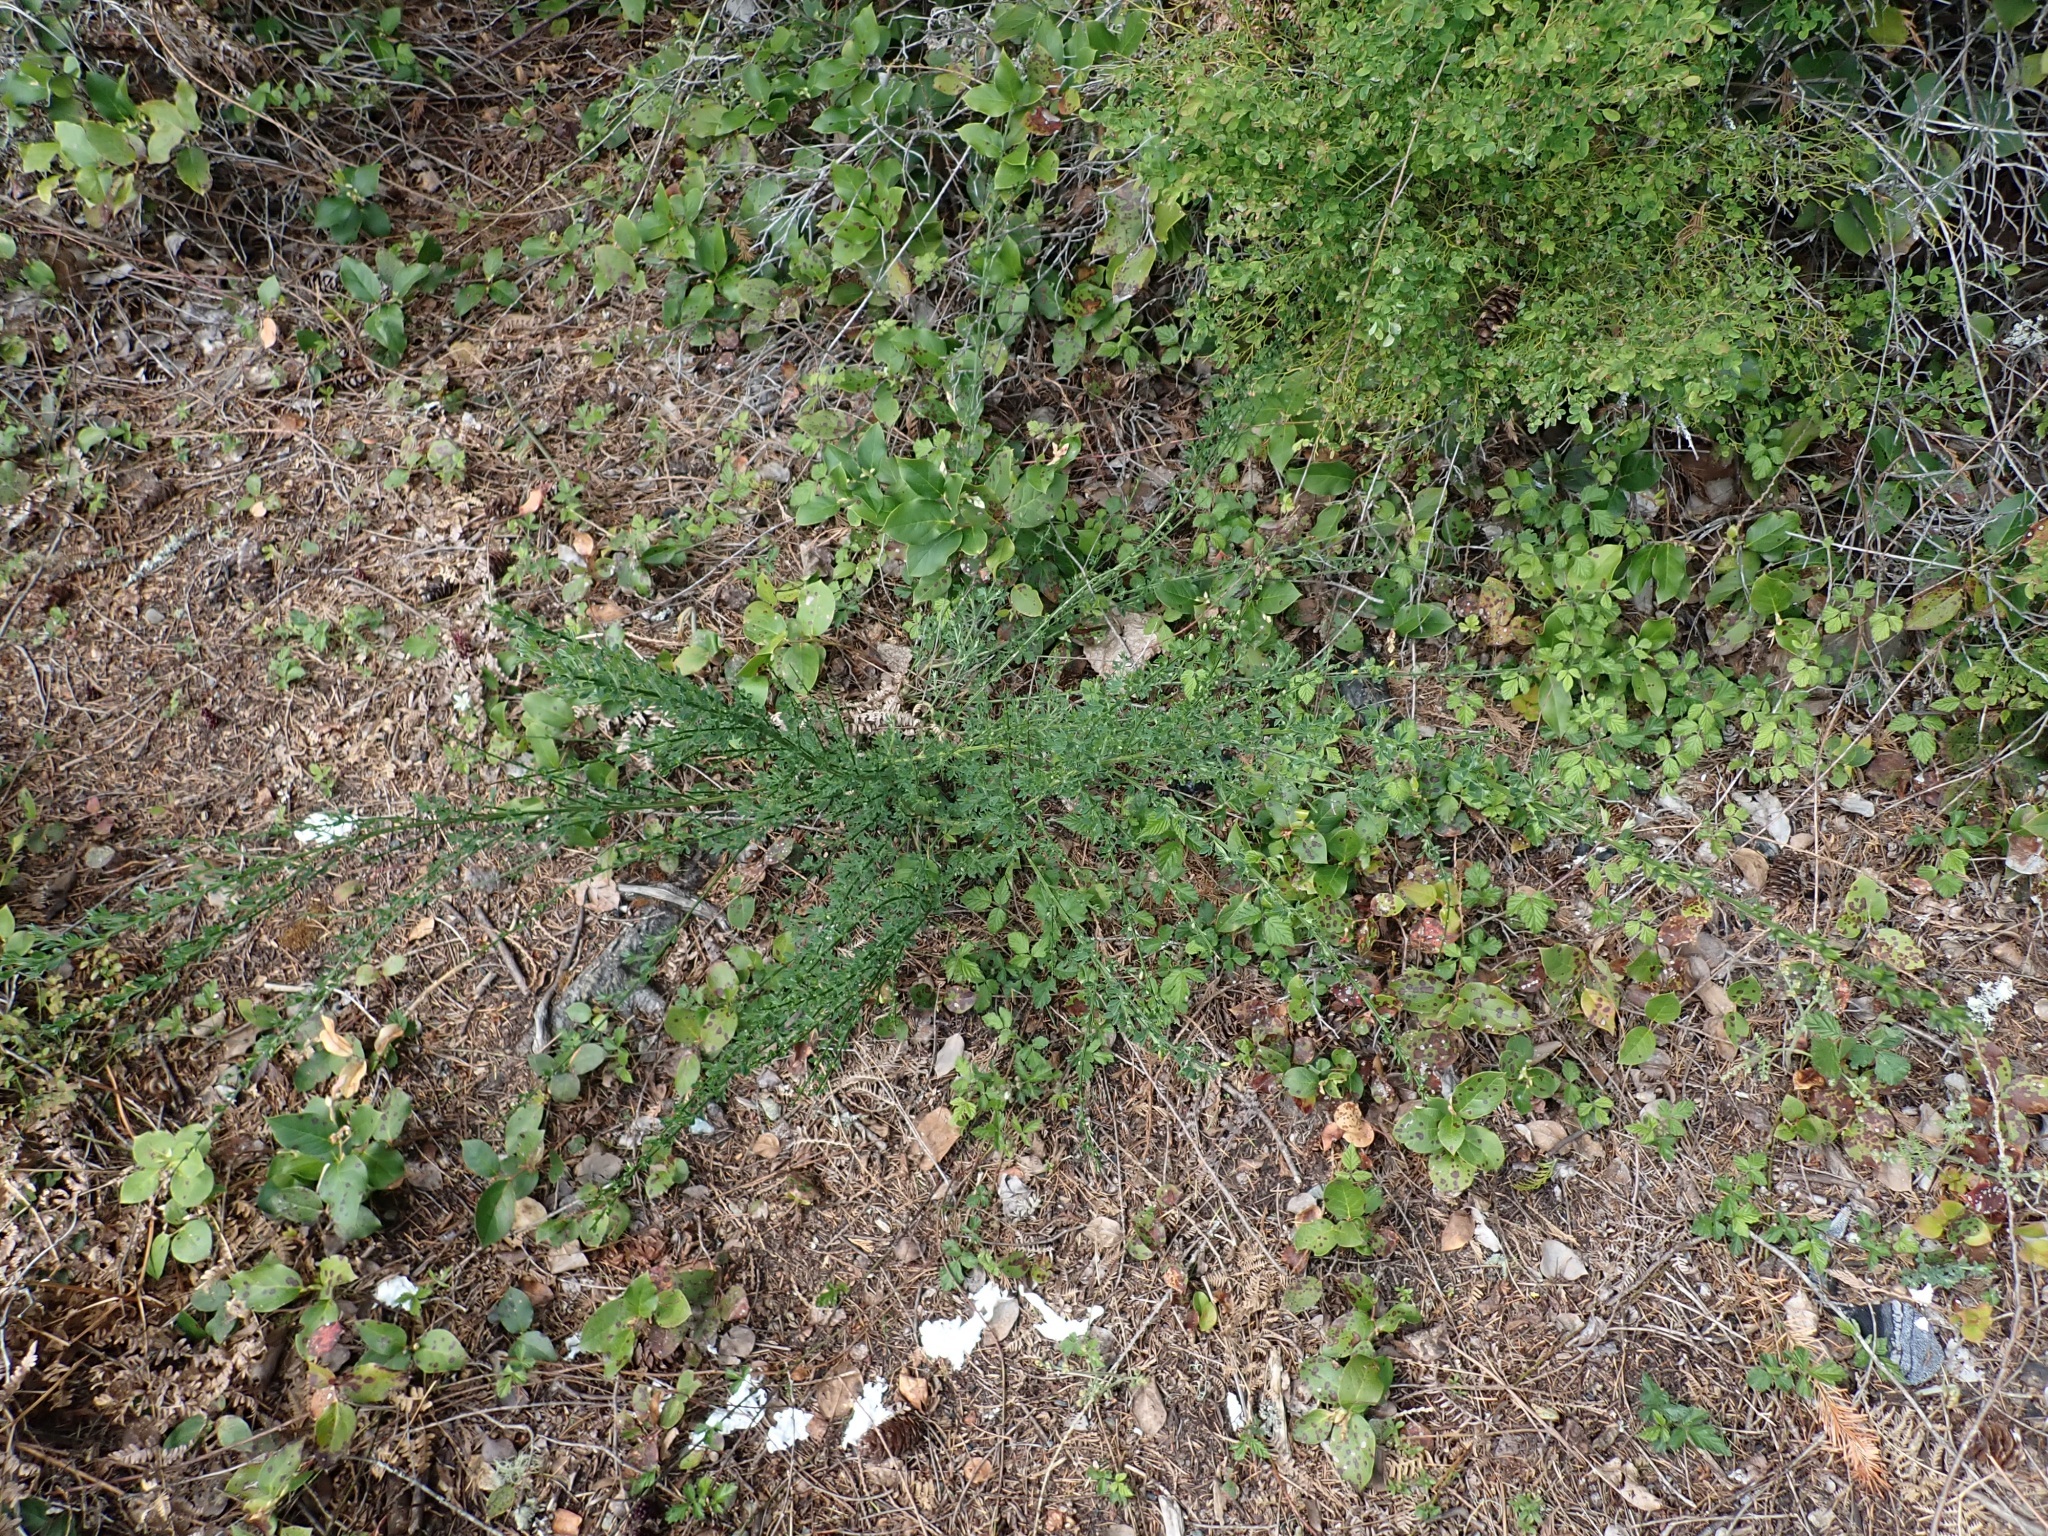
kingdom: Plantae
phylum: Tracheophyta
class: Magnoliopsida
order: Fabales
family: Fabaceae
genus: Cytisus
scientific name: Cytisus scoparius
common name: Scotch broom
